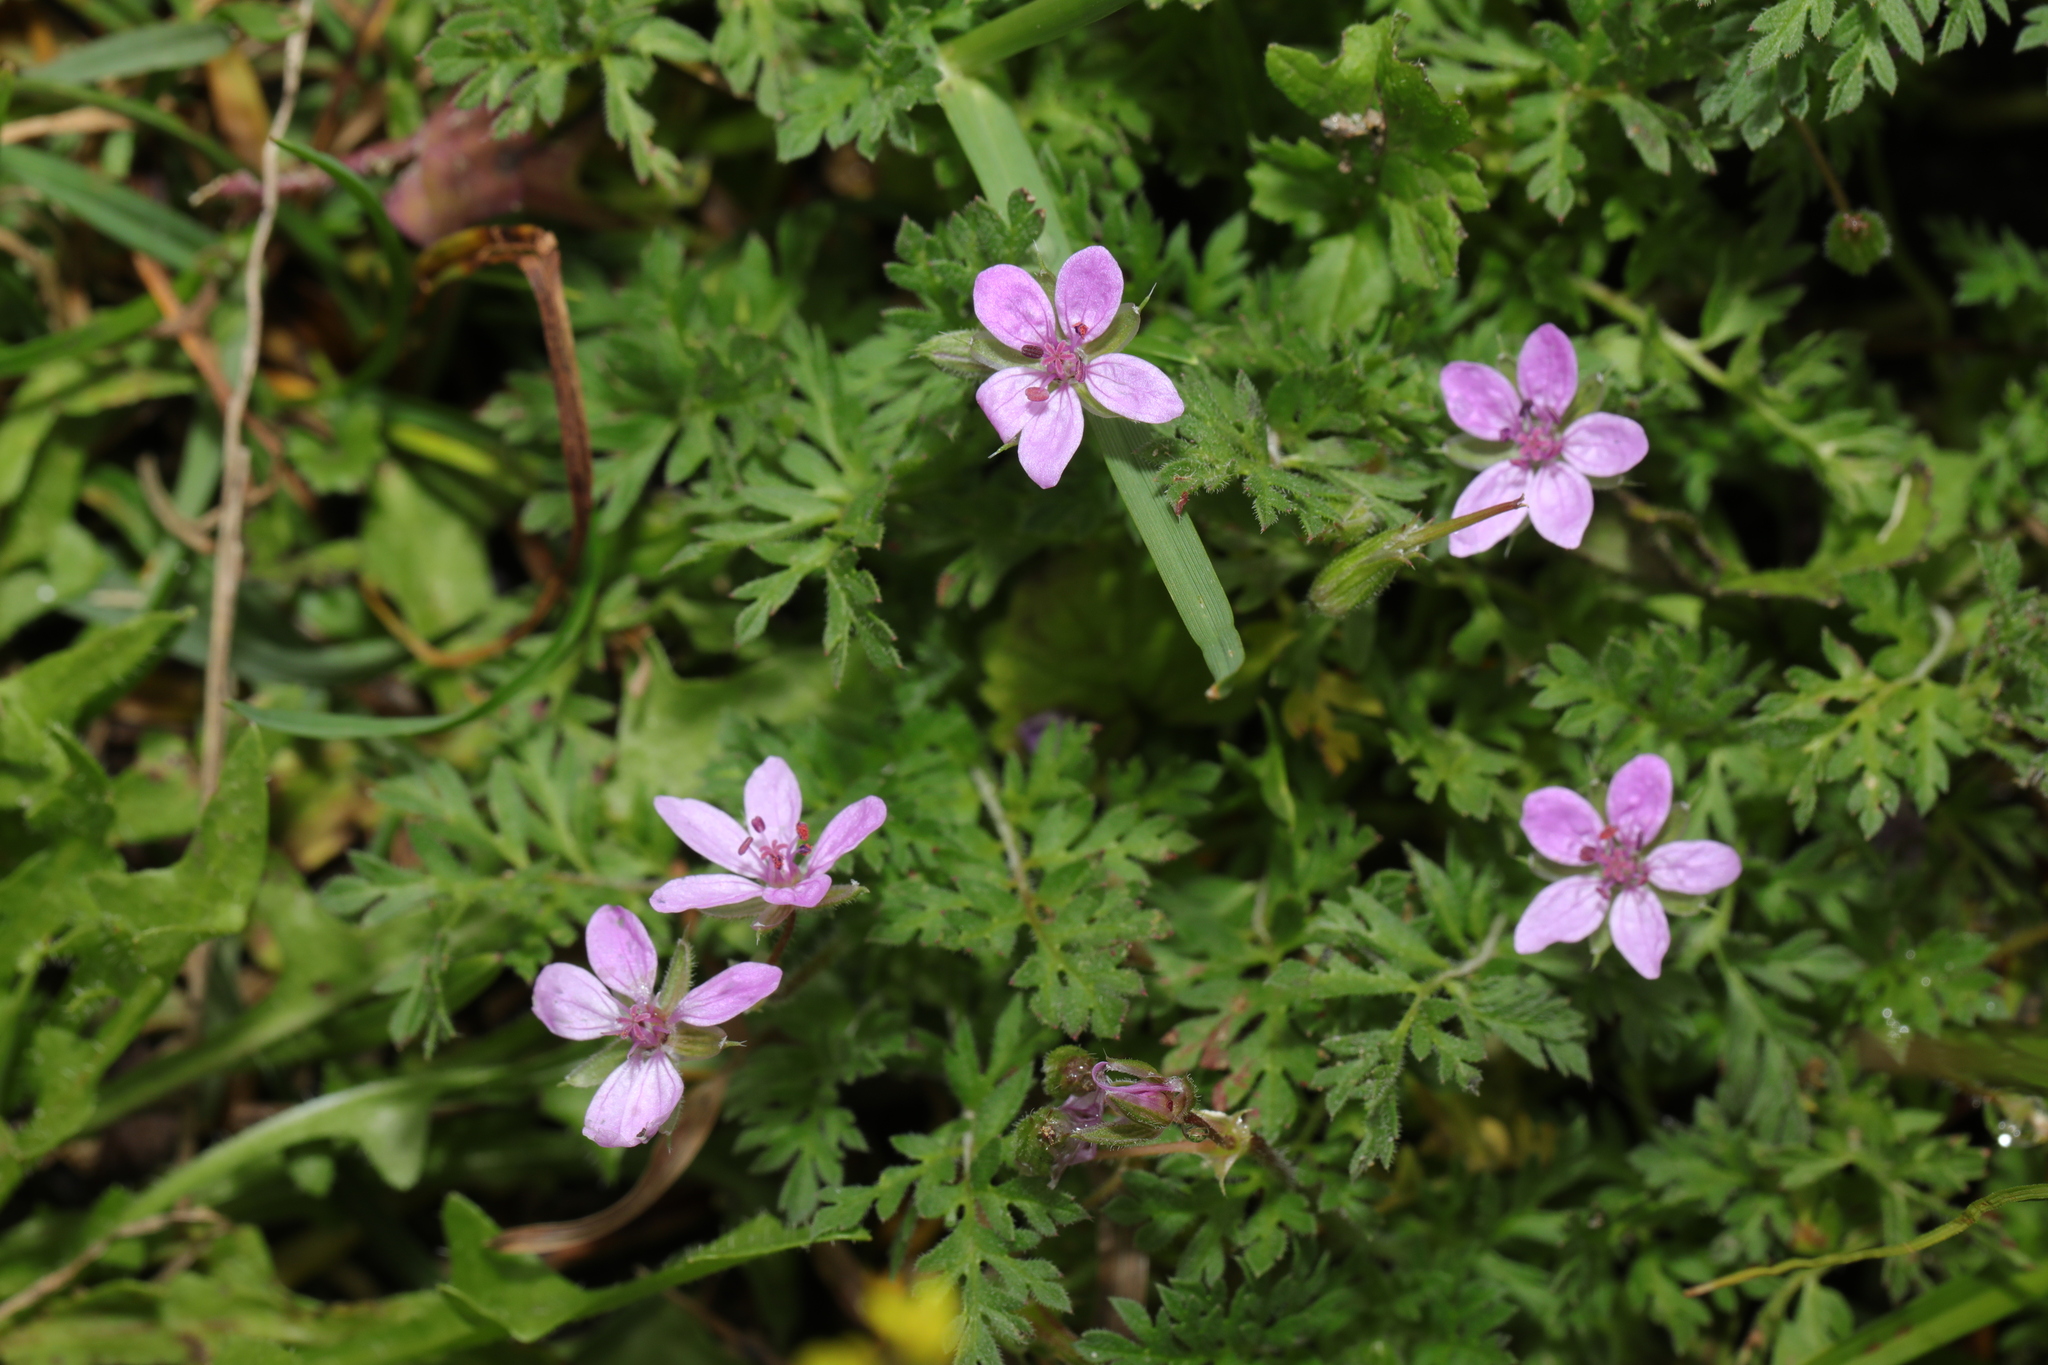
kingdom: Plantae
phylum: Tracheophyta
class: Magnoliopsida
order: Geraniales
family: Geraniaceae
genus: Erodium
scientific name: Erodium cicutarium
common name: Common stork's-bill
